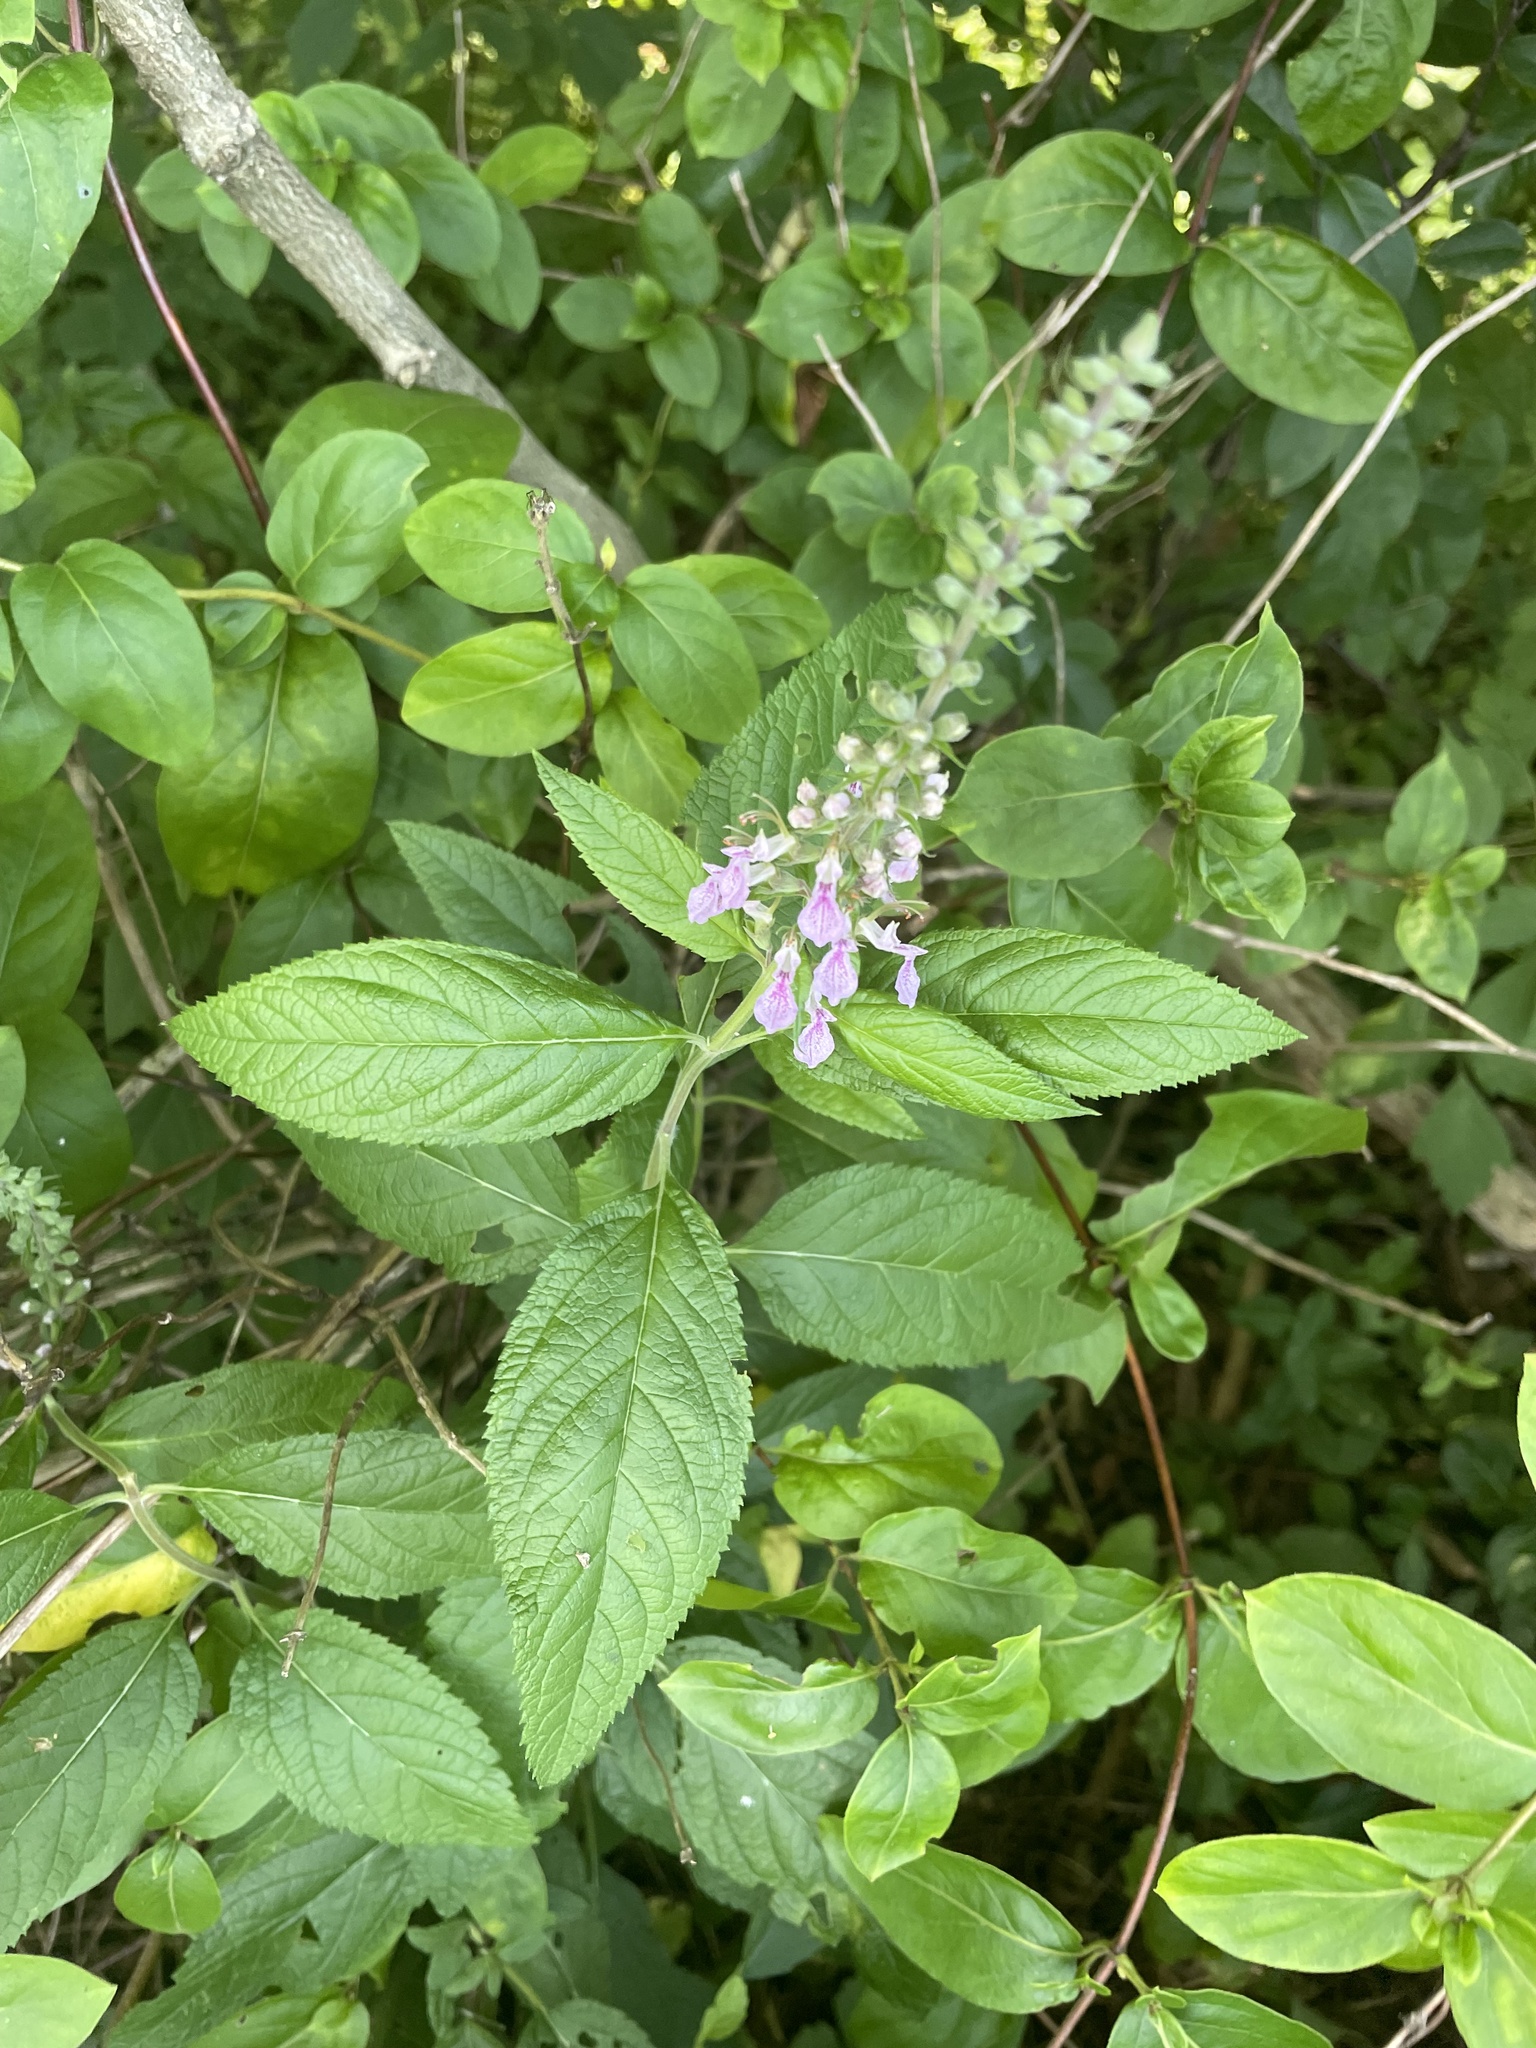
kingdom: Plantae
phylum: Tracheophyta
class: Magnoliopsida
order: Lamiales
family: Lamiaceae
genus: Teucrium
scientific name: Teucrium canadense
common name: American germander
